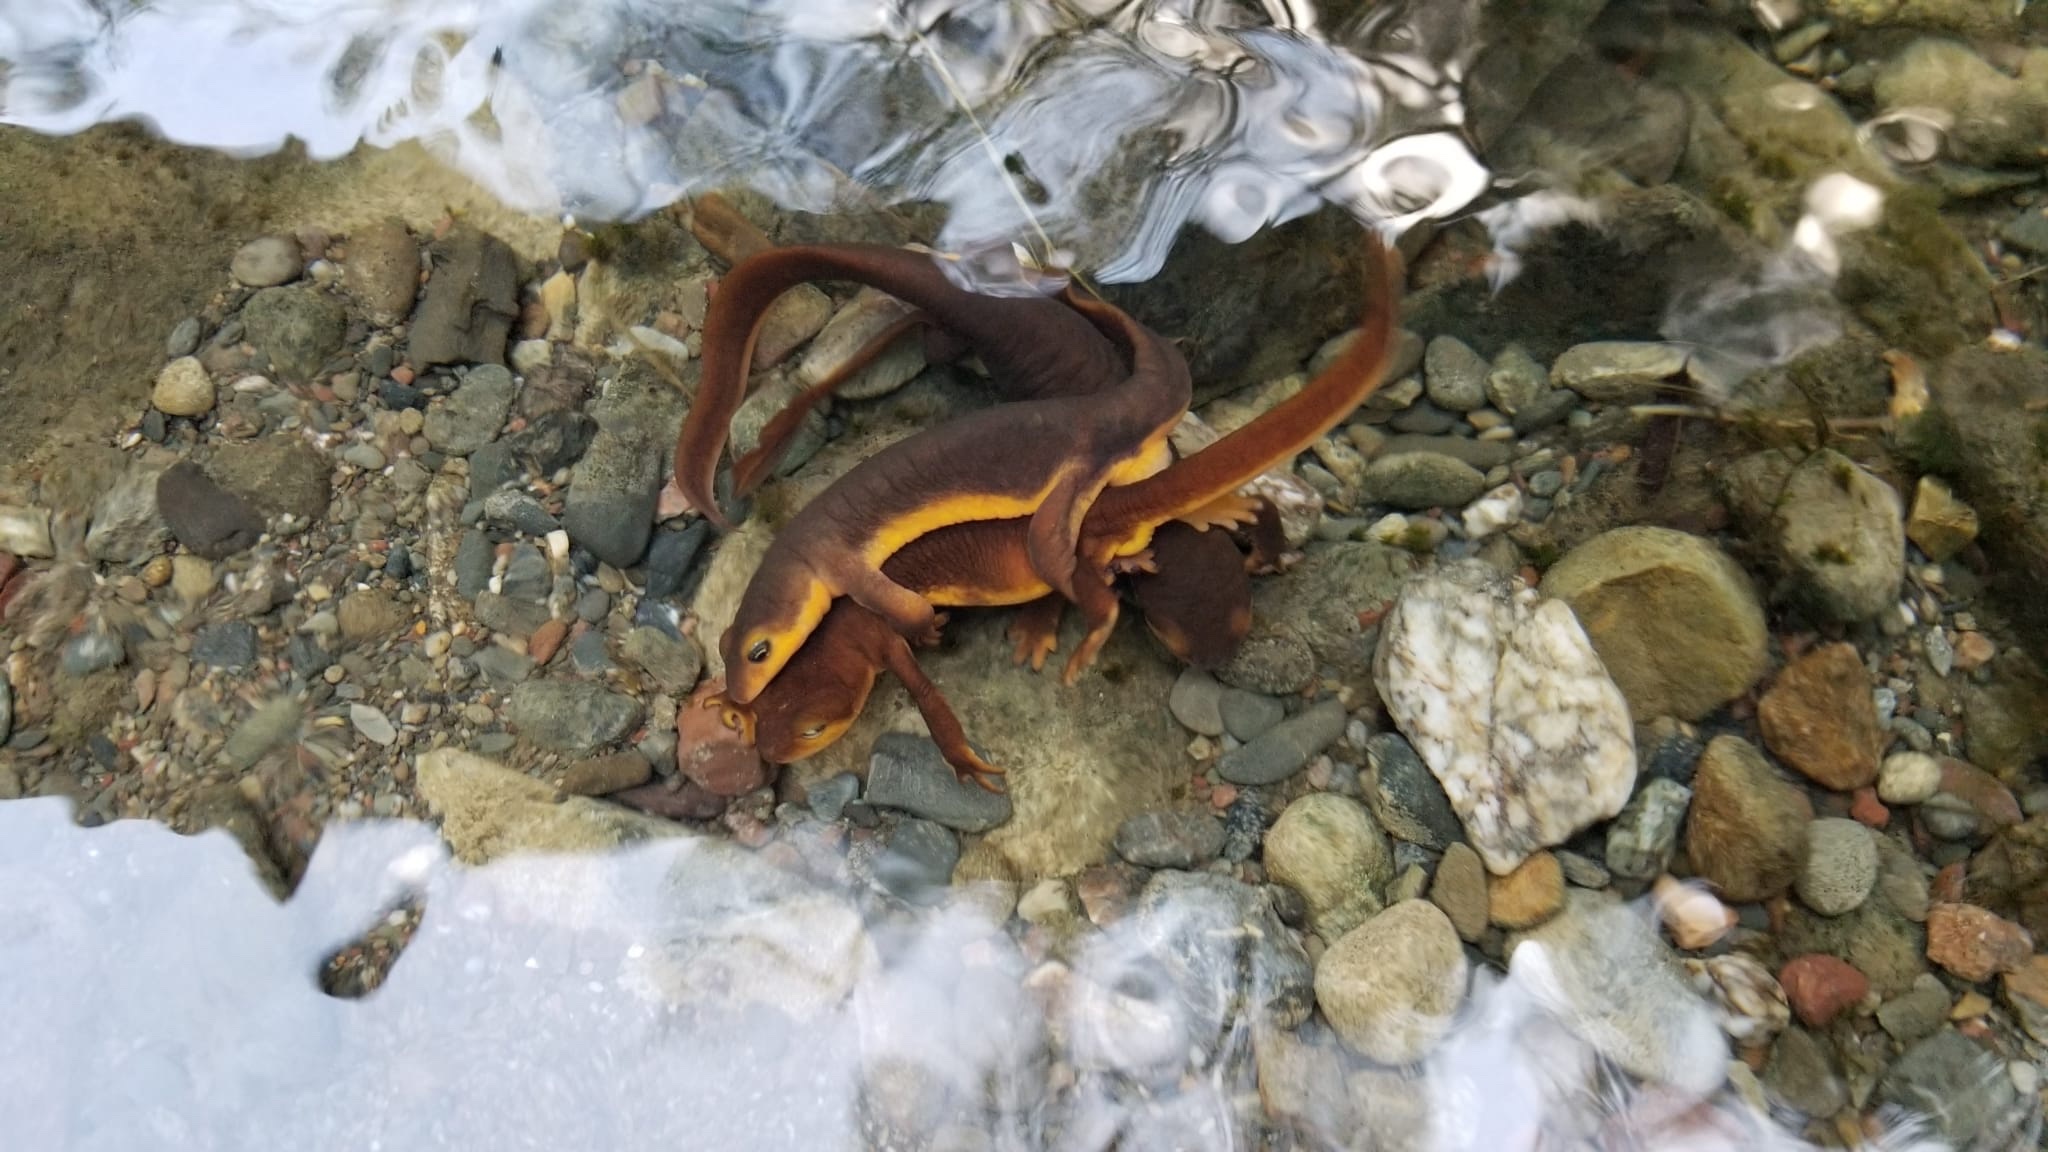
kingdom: Animalia
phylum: Chordata
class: Amphibia
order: Caudata
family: Salamandridae
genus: Taricha
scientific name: Taricha torosa
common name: California newt
